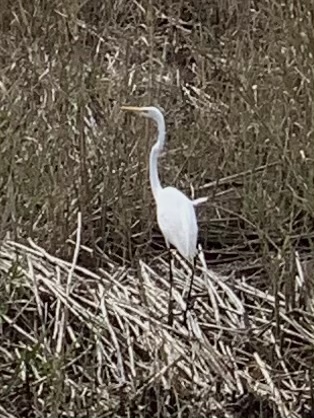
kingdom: Animalia
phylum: Chordata
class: Aves
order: Pelecaniformes
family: Ardeidae
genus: Ardea
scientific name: Ardea alba
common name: Great egret
